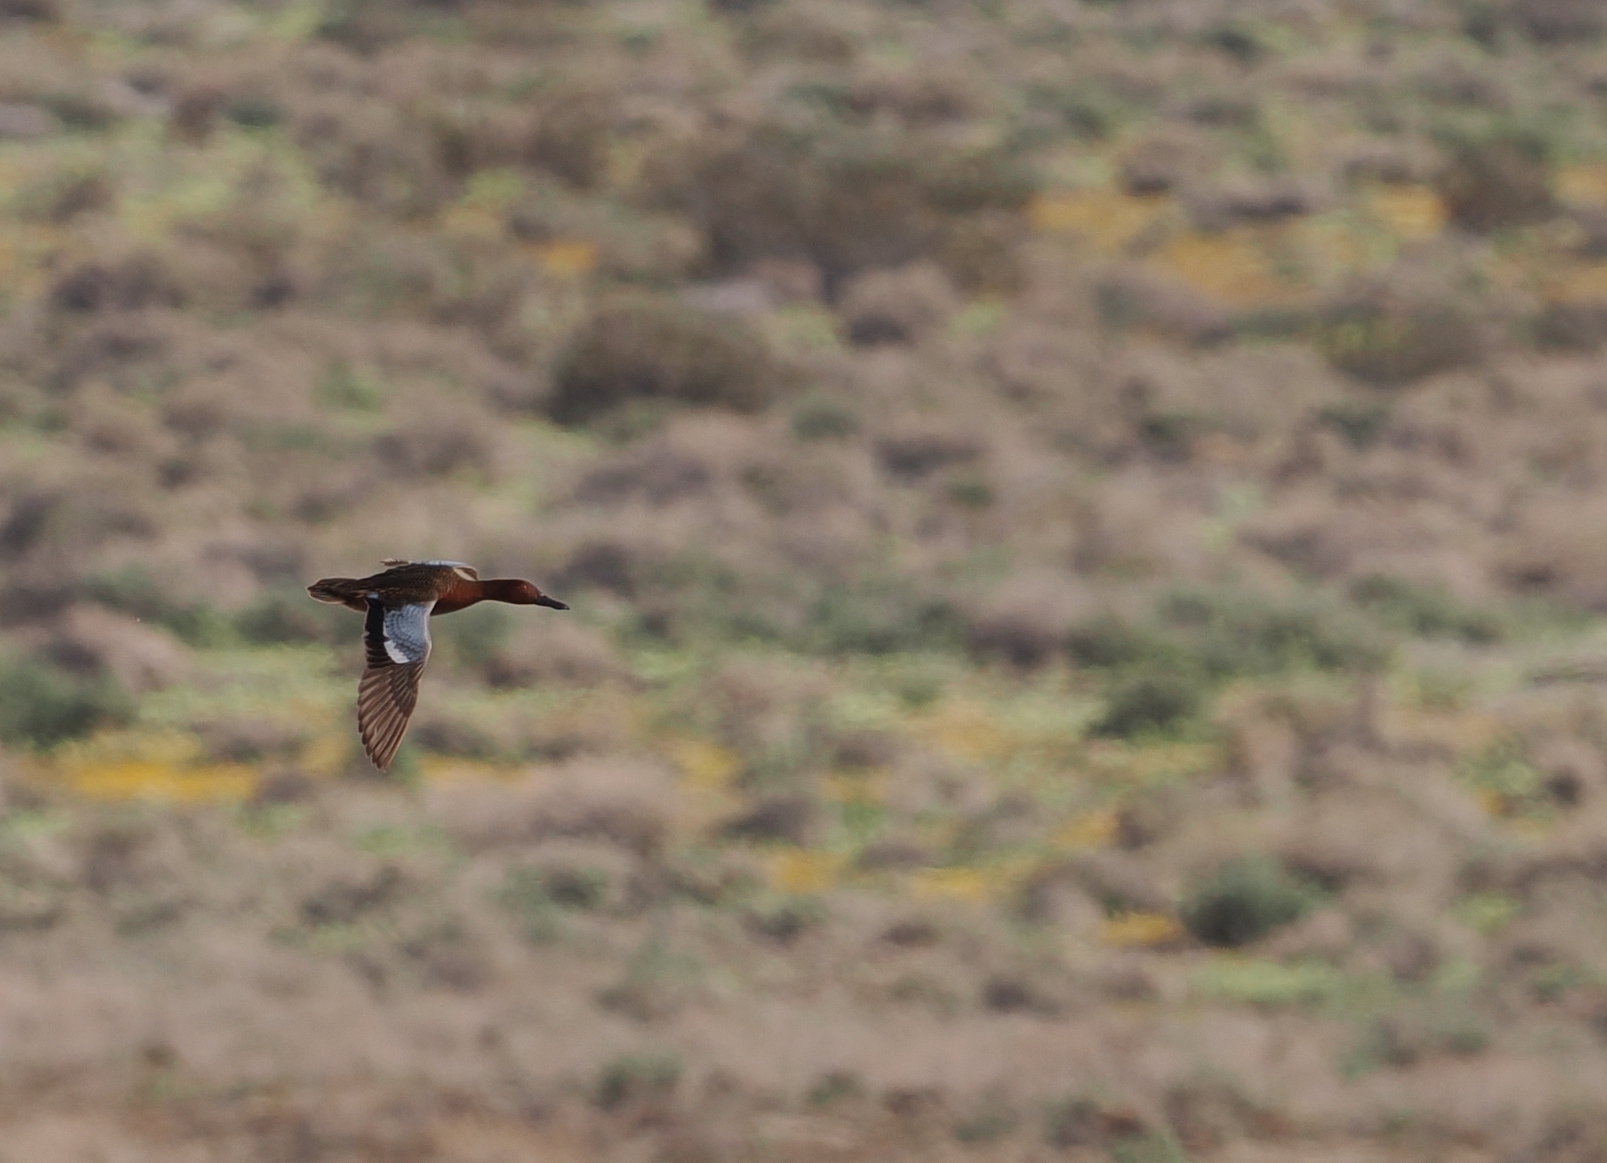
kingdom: Animalia
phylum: Chordata
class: Aves
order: Anseriformes
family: Anatidae
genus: Spatula
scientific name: Spatula cyanoptera
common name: Cinnamon teal
